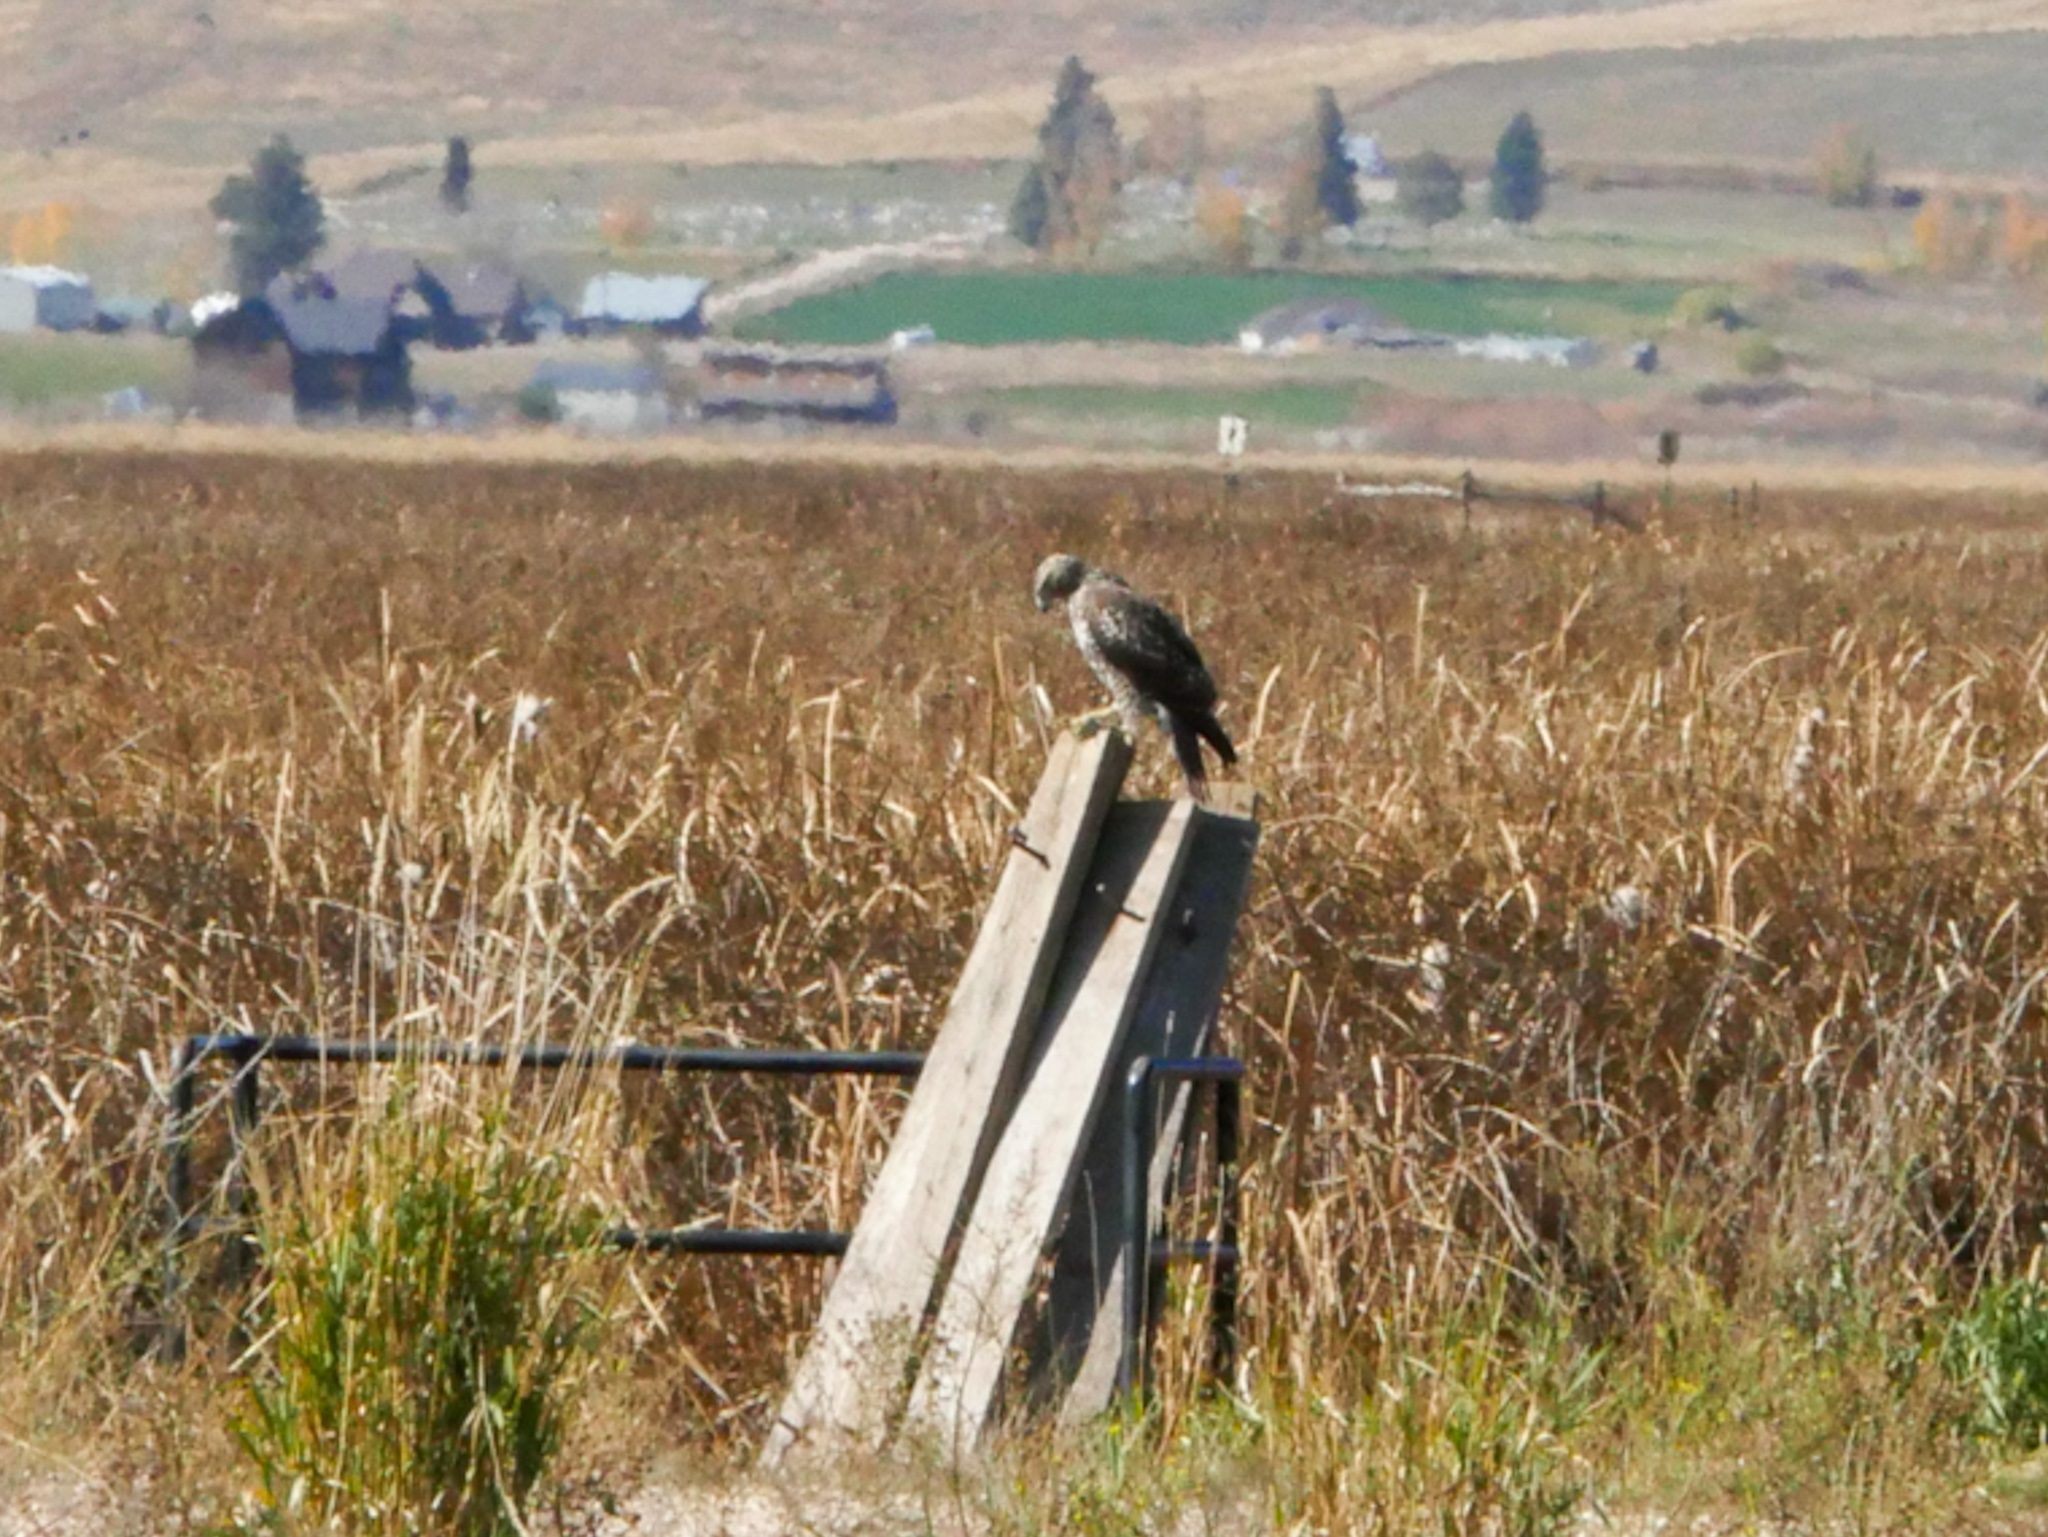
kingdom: Animalia
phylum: Chordata
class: Aves
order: Accipitriformes
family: Accipitridae
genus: Buteo
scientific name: Buteo jamaicensis
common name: Red-tailed hawk
